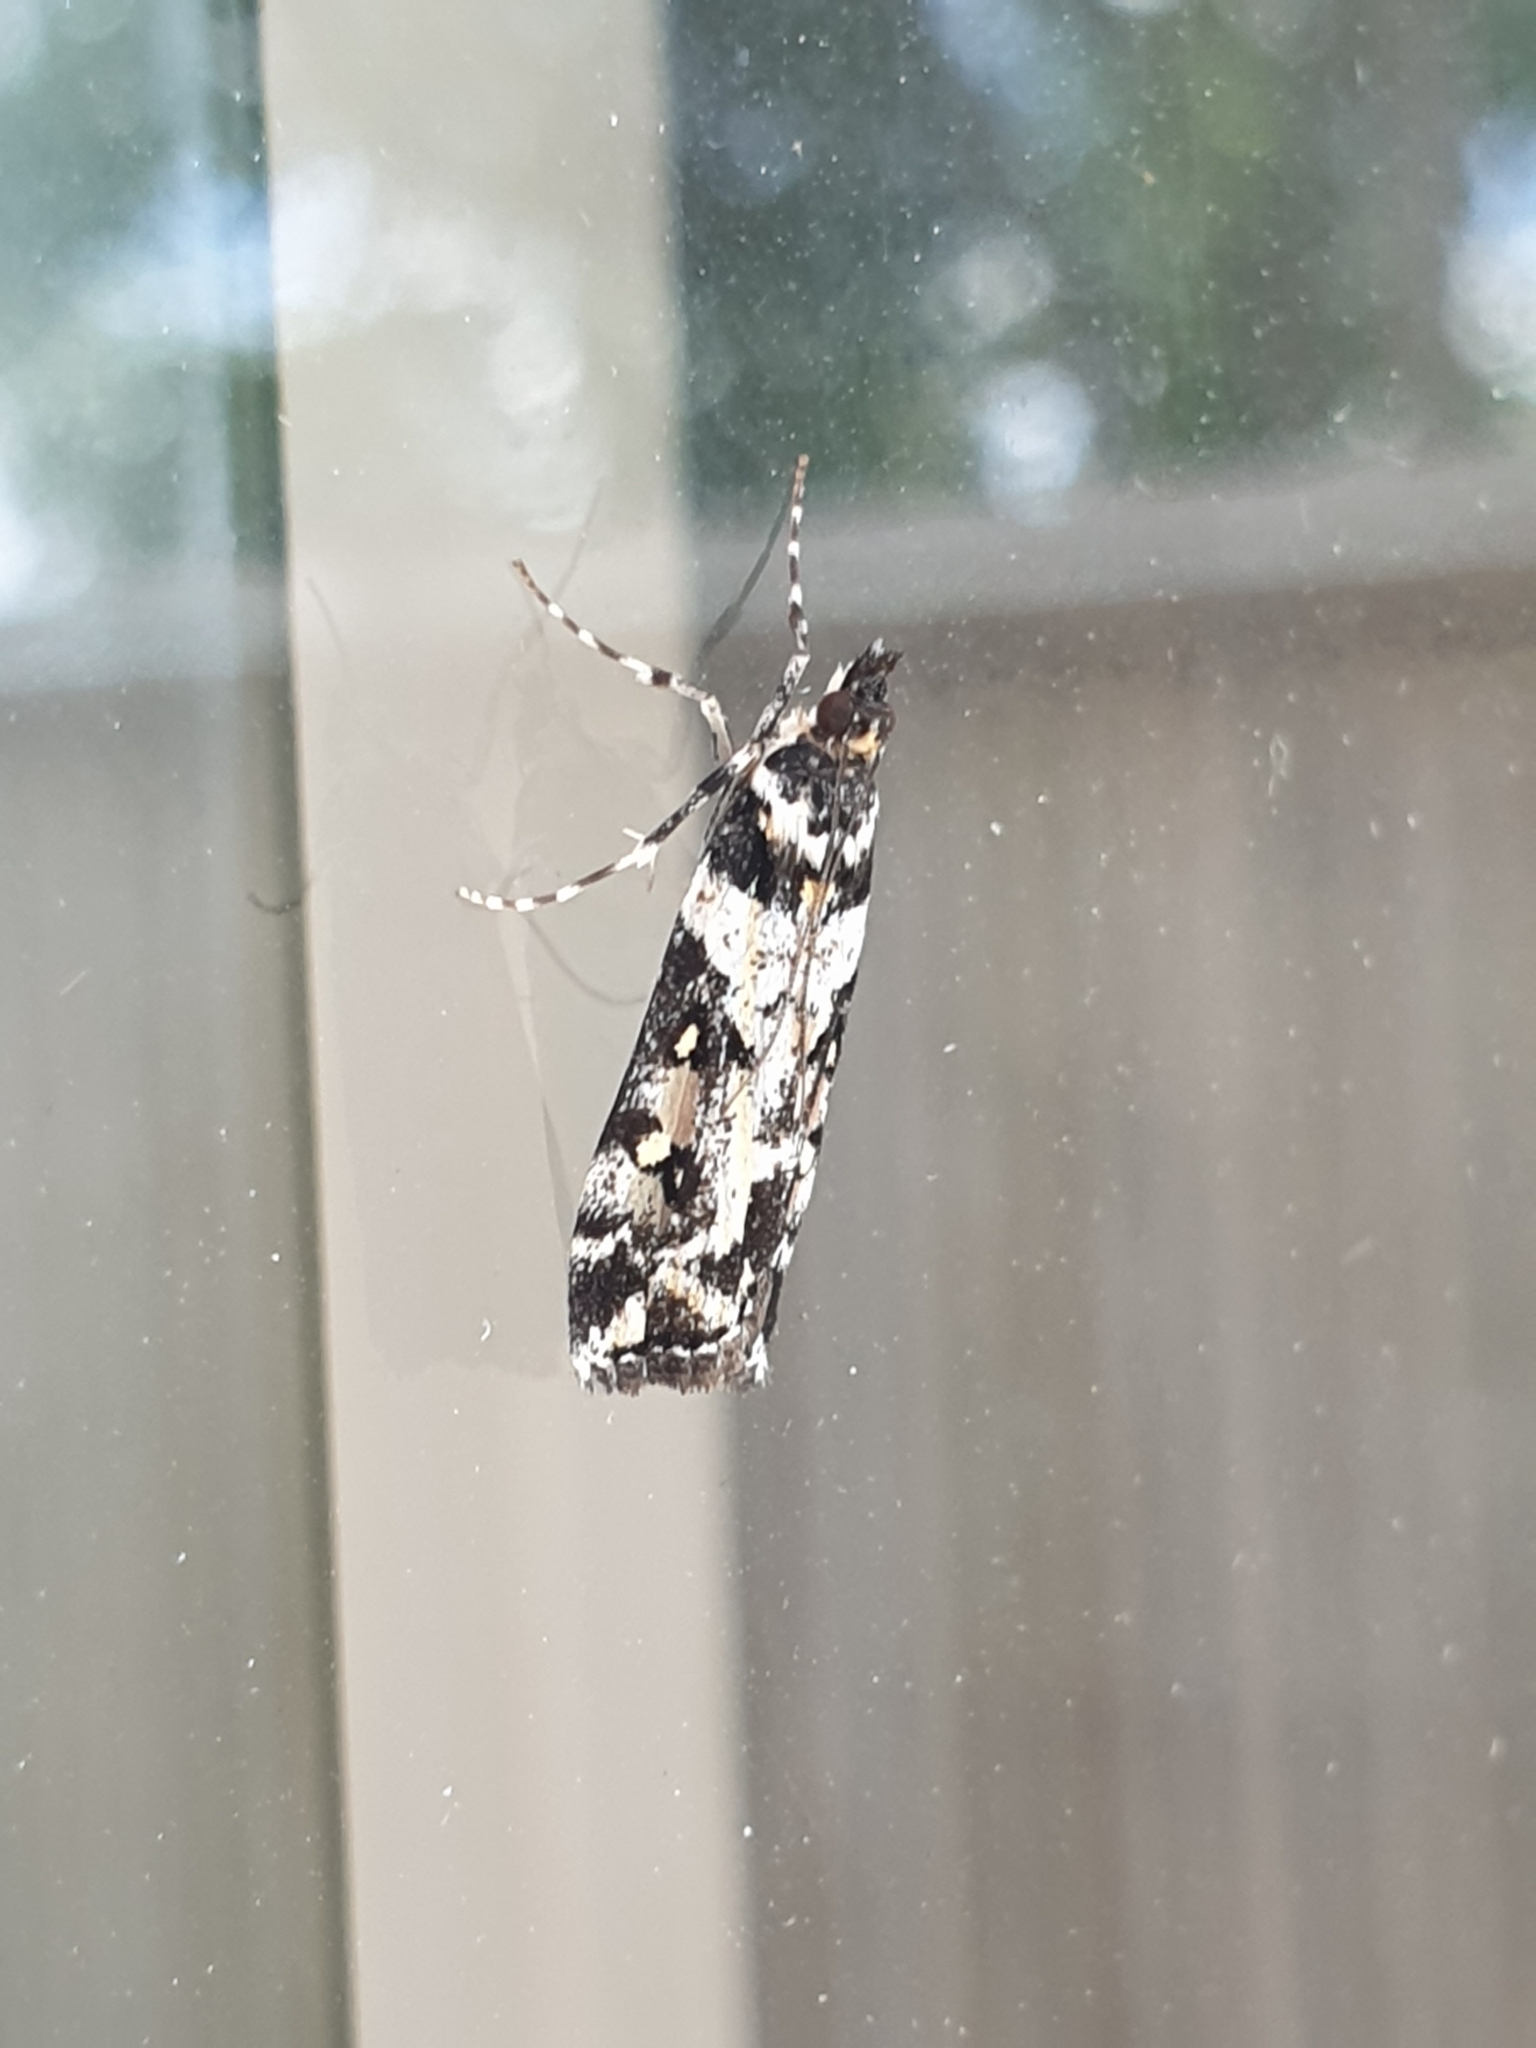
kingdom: Animalia
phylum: Arthropoda
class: Insecta
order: Lepidoptera
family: Crambidae
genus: Eudonia
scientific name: Eudonia diphtheralis
